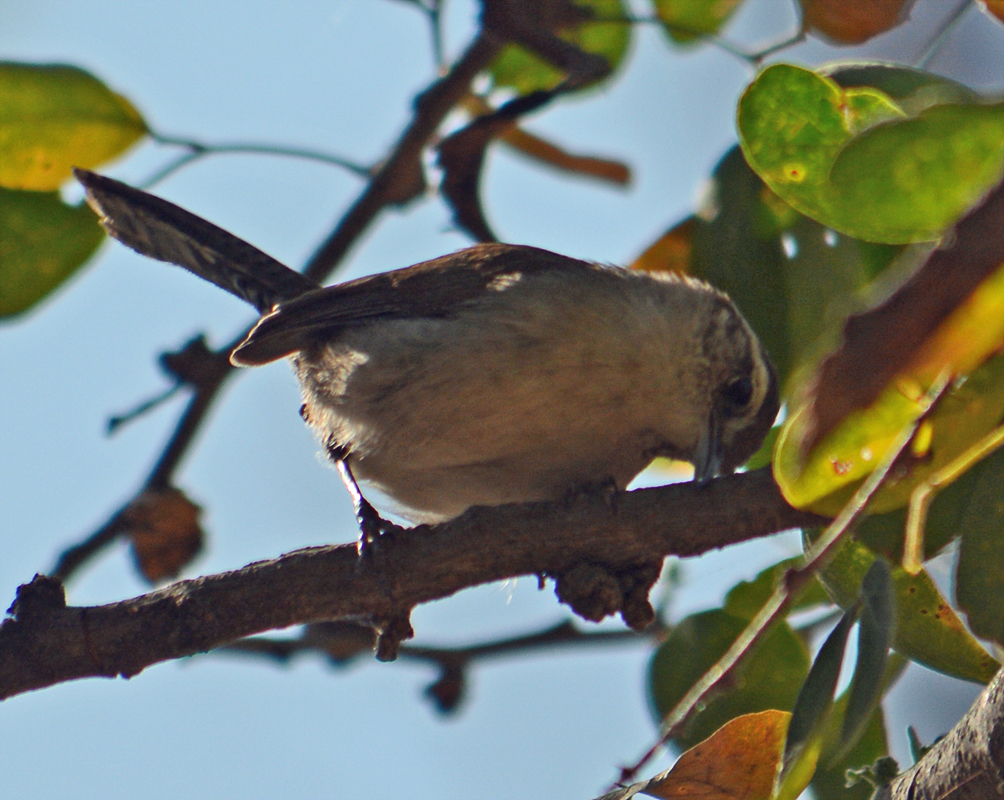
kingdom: Animalia
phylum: Chordata
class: Aves
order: Passeriformes
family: Troglodytidae
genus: Thryomanes
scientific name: Thryomanes bewickii
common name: Bewick's wren
